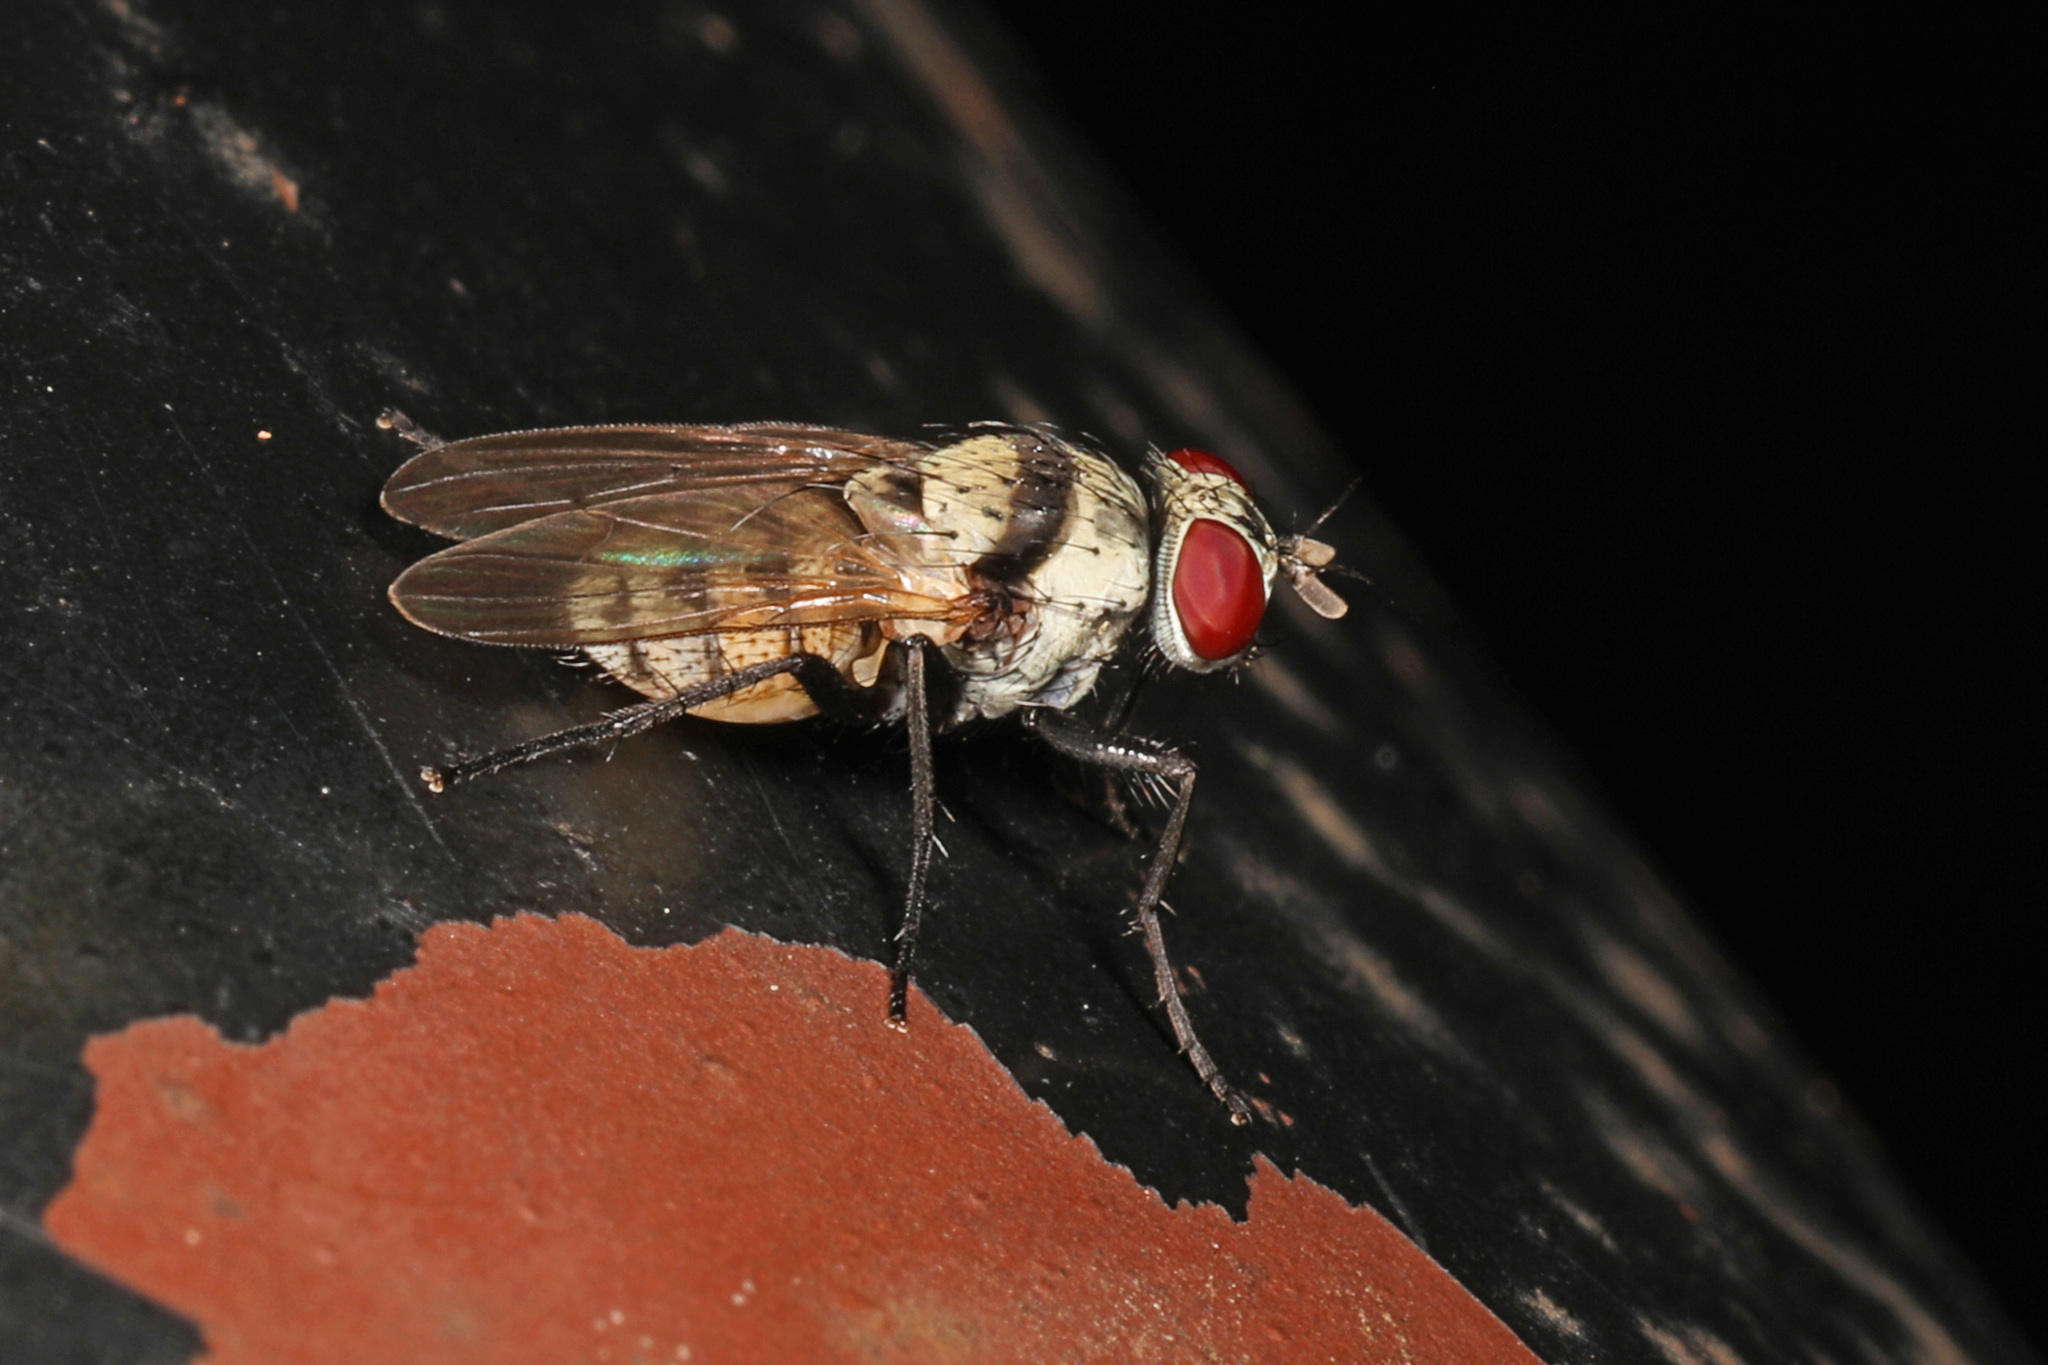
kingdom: Animalia
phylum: Arthropoda
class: Insecta
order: Diptera
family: Anthomyiidae
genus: Anthomyia
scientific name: Anthomyia illocata
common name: Fly
